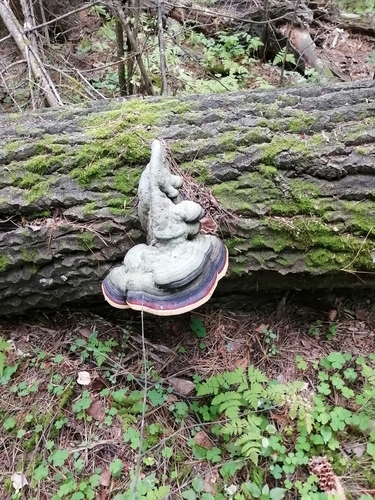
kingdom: Fungi
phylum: Basidiomycota
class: Agaricomycetes
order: Polyporales
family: Fomitopsidaceae
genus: Fomitopsis
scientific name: Fomitopsis pinicola
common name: Red-belted bracket
